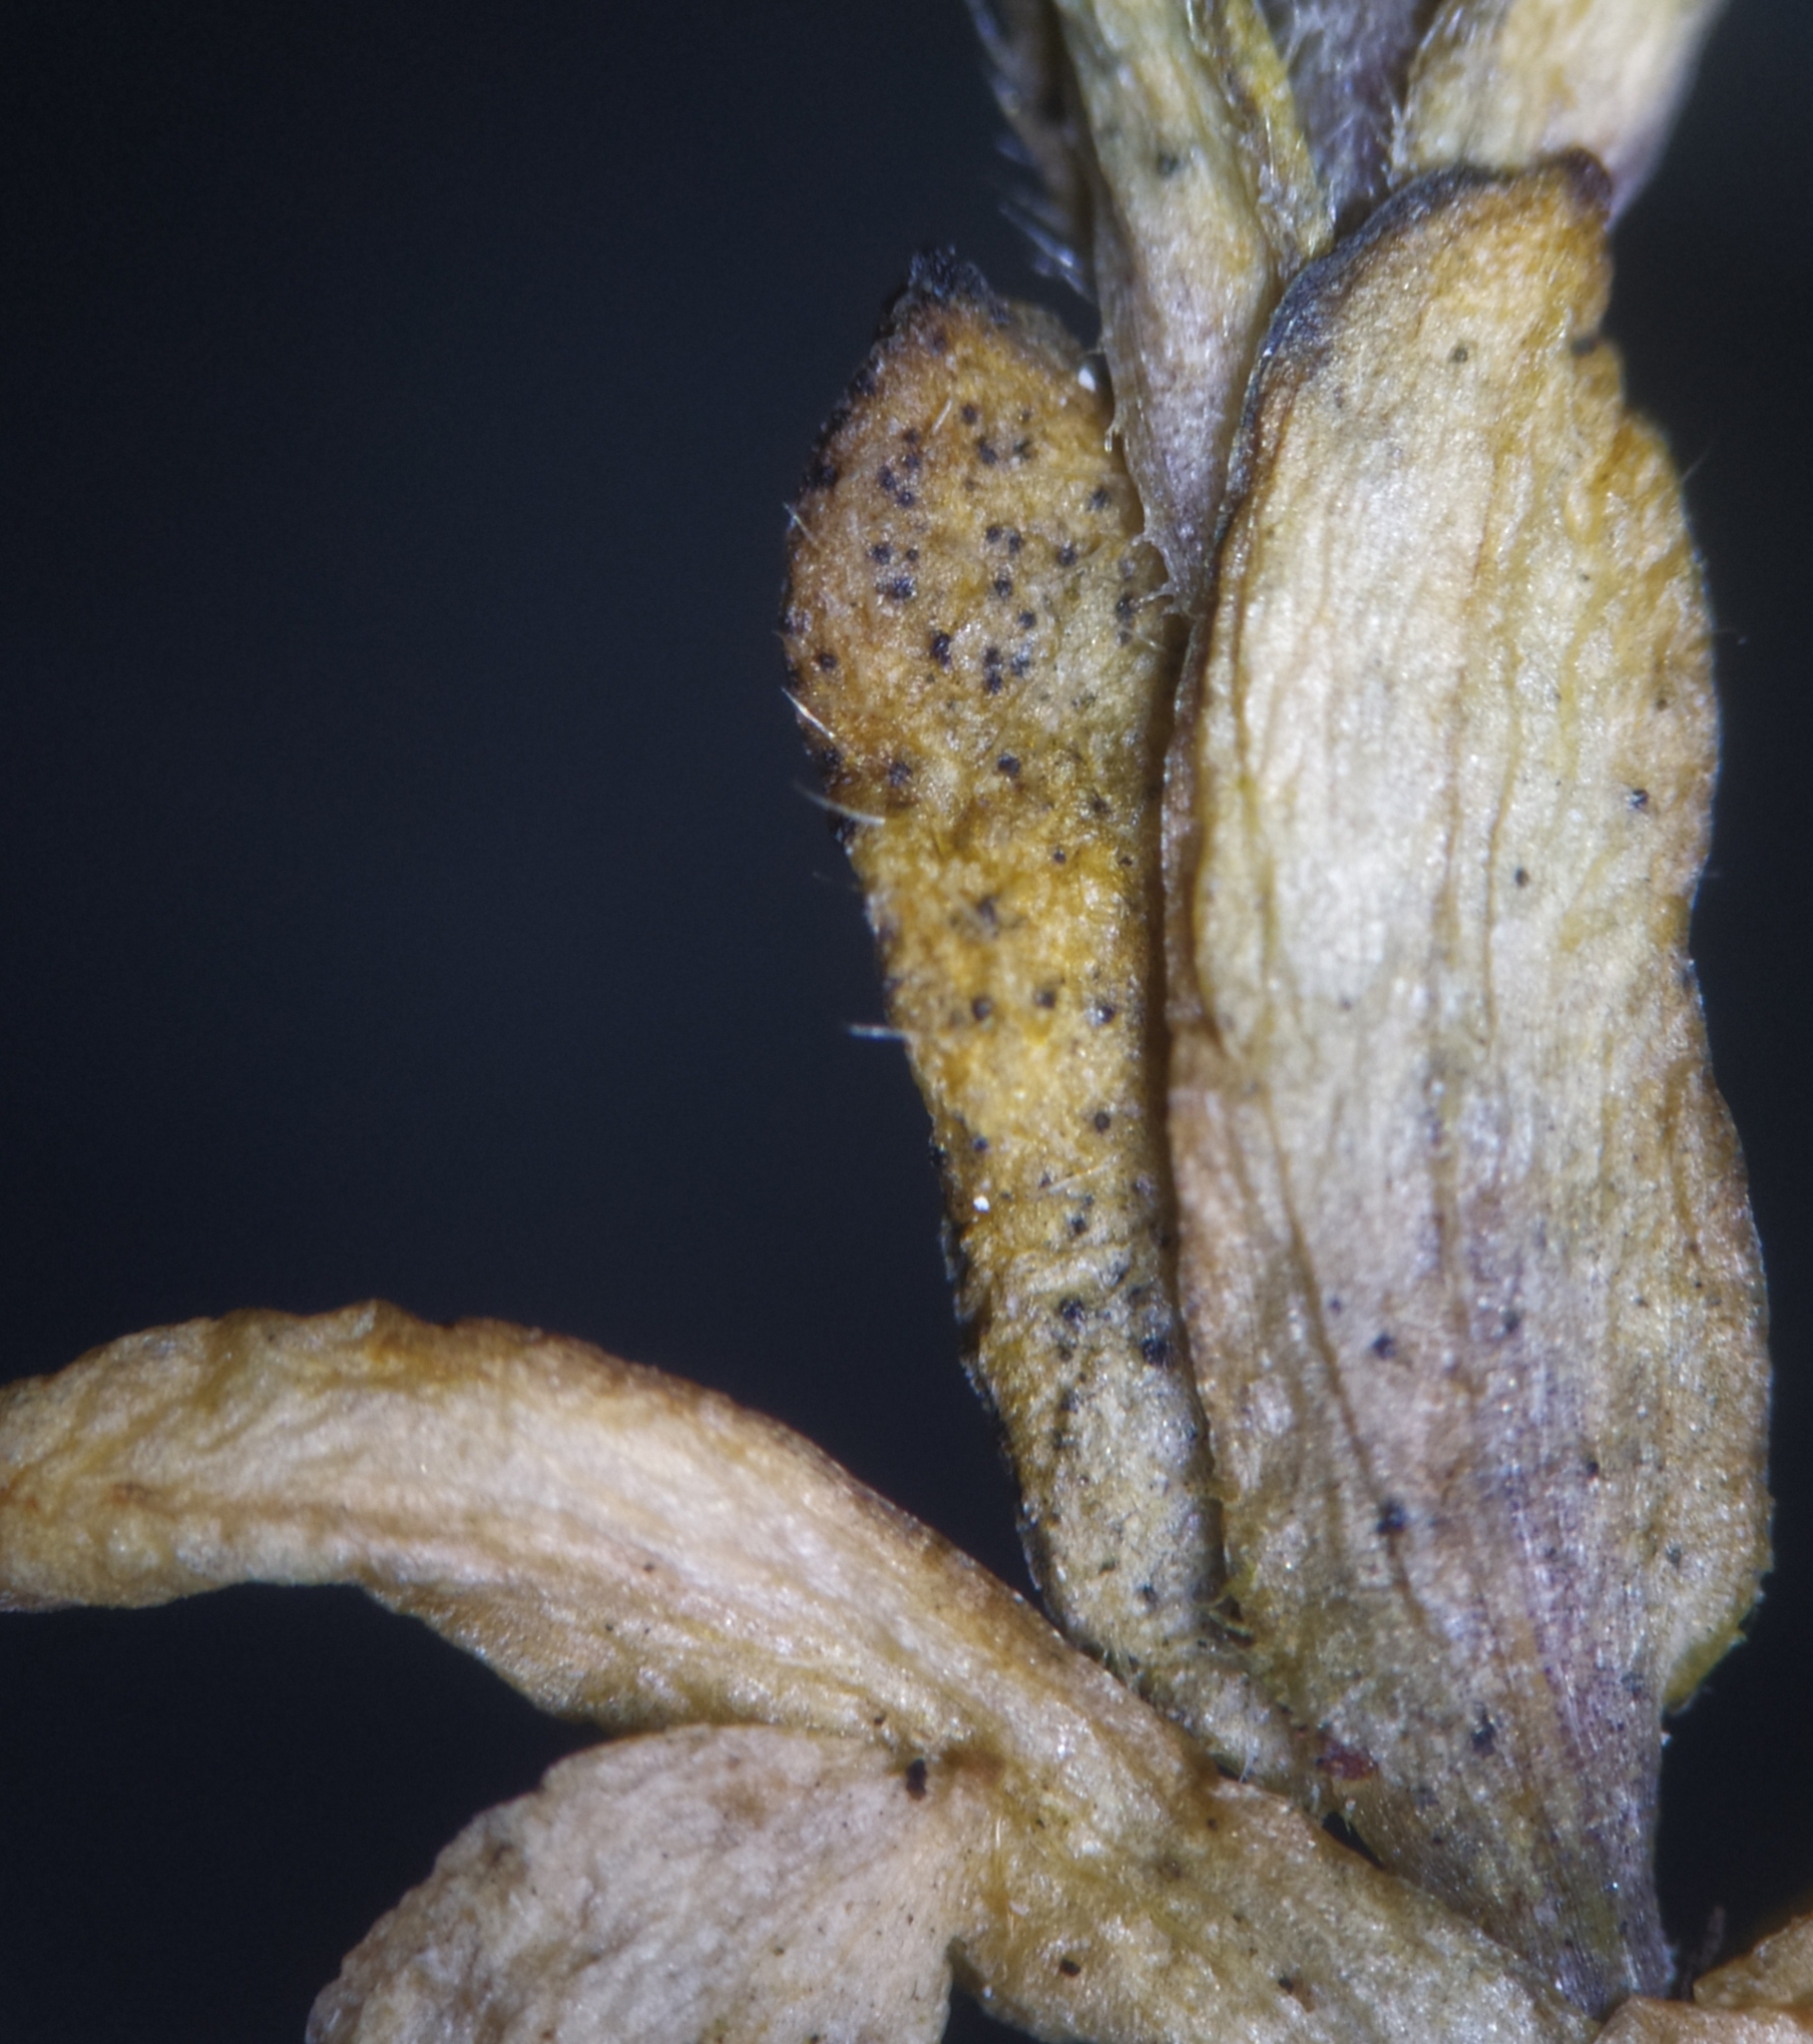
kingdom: Fungi
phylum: Ascomycota
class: Dothideomycetes
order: Mycosphaerellales
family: Mycosphaerellaceae
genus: Septoria
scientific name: Septoria cerastii
